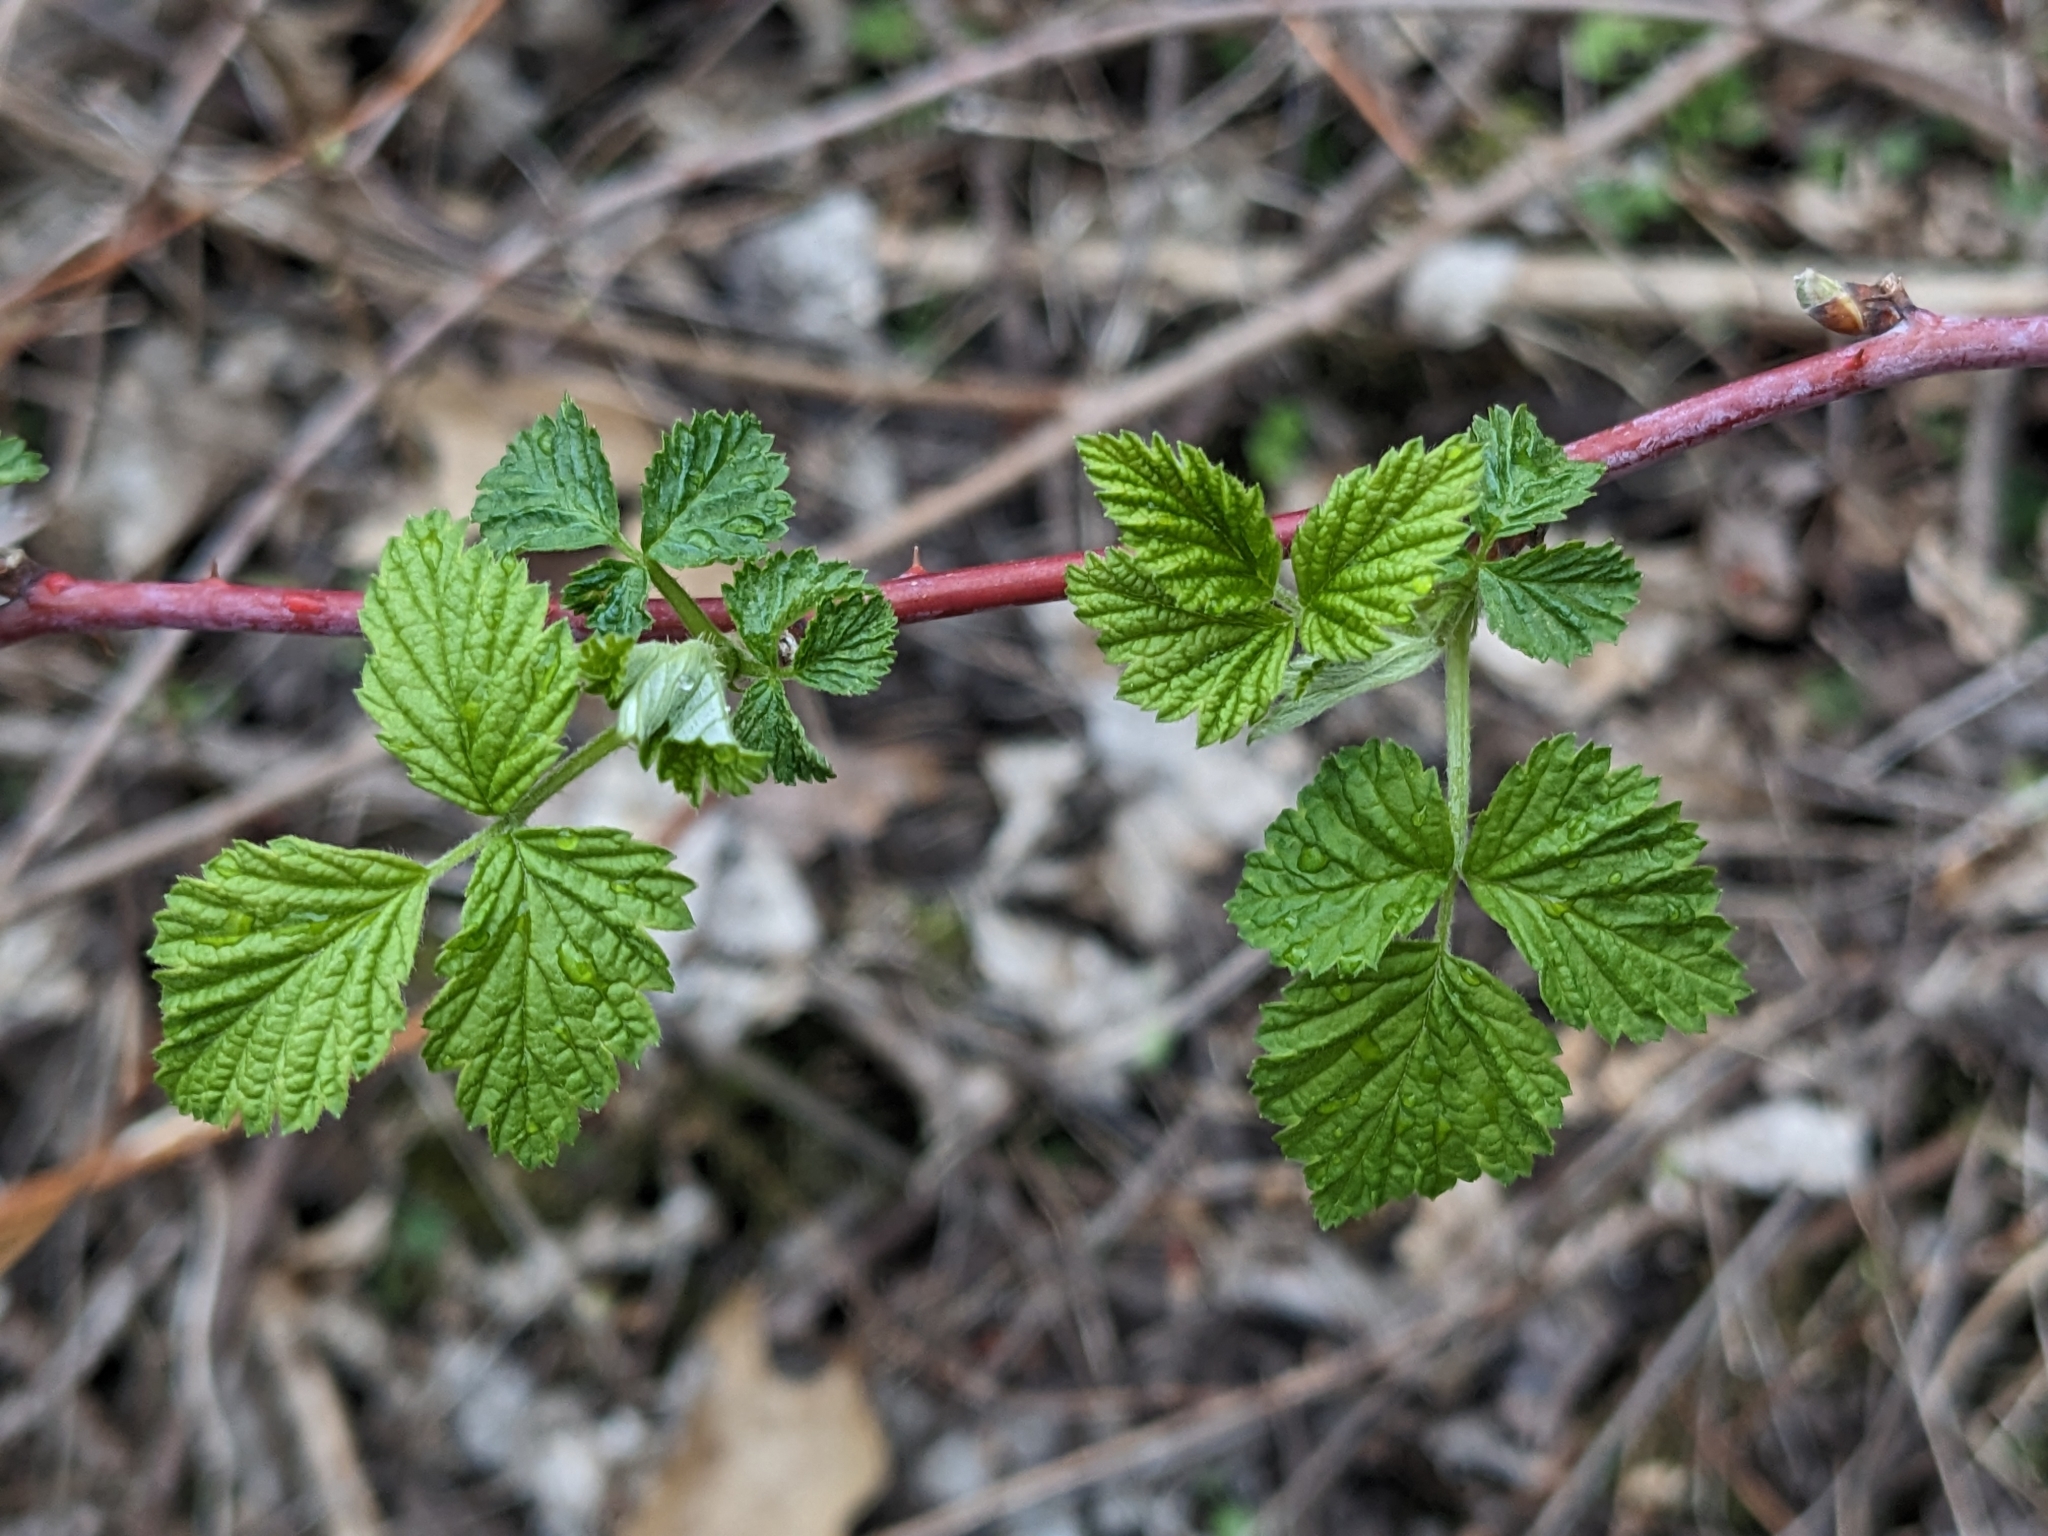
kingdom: Plantae
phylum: Tracheophyta
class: Magnoliopsida
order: Rosales
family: Rosaceae
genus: Rubus
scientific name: Rubus occidentalis
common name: Black raspberry
